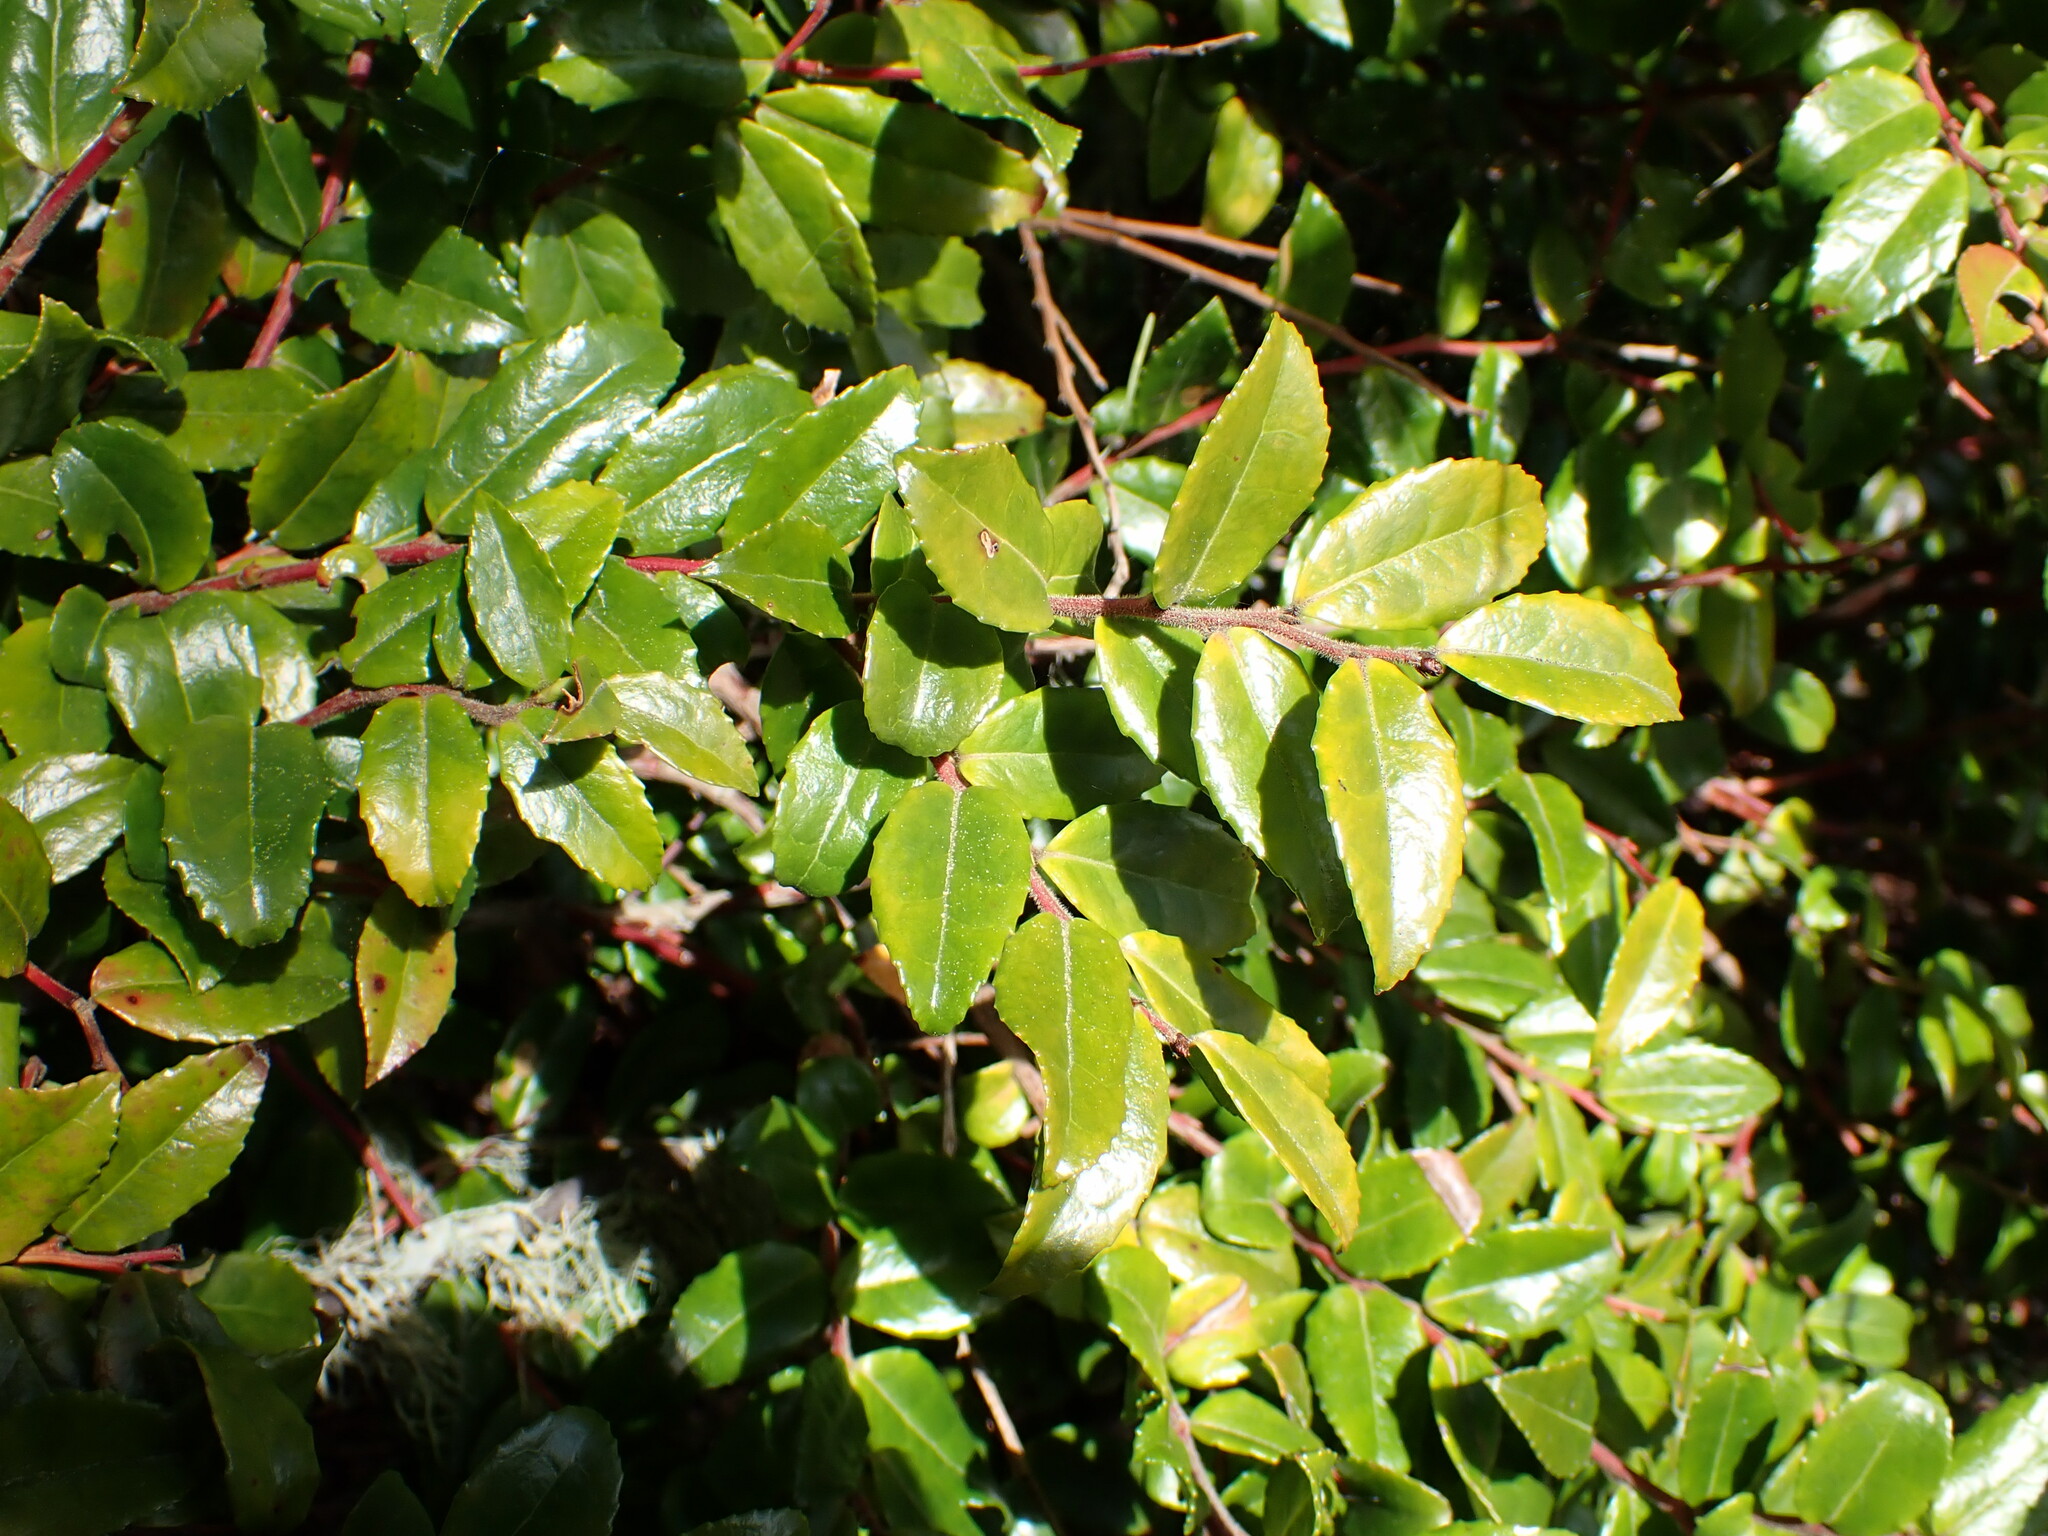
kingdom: Plantae
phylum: Tracheophyta
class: Magnoliopsida
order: Ericales
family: Ericaceae
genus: Vaccinium
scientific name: Vaccinium ovatum
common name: California-huckleberry
